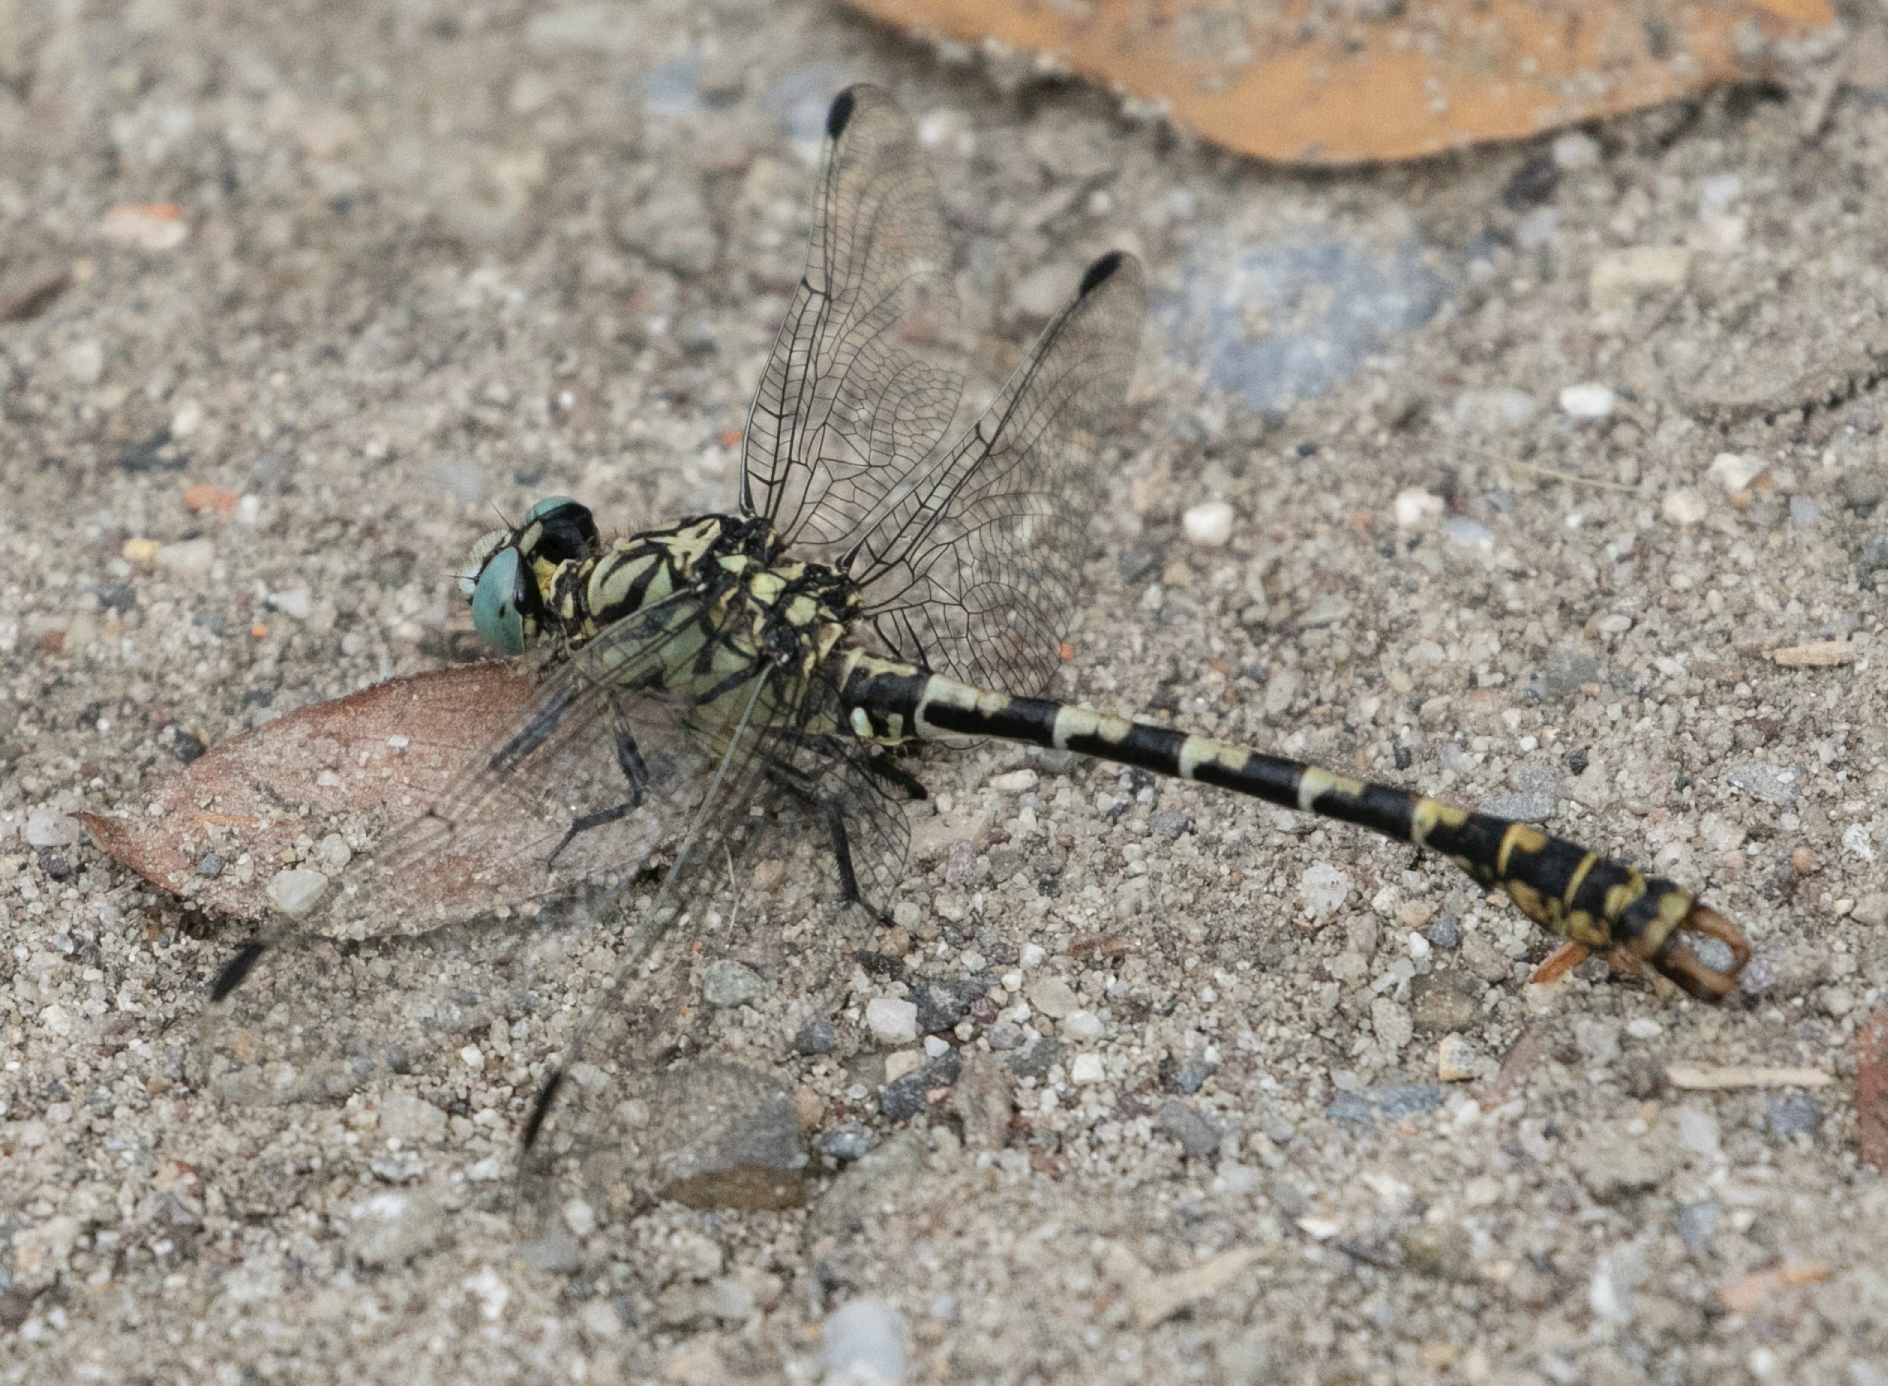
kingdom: Animalia
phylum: Arthropoda
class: Insecta
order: Odonata
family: Gomphidae
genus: Onychogomphus
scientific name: Onychogomphus forcipatus
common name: Small pincertail
